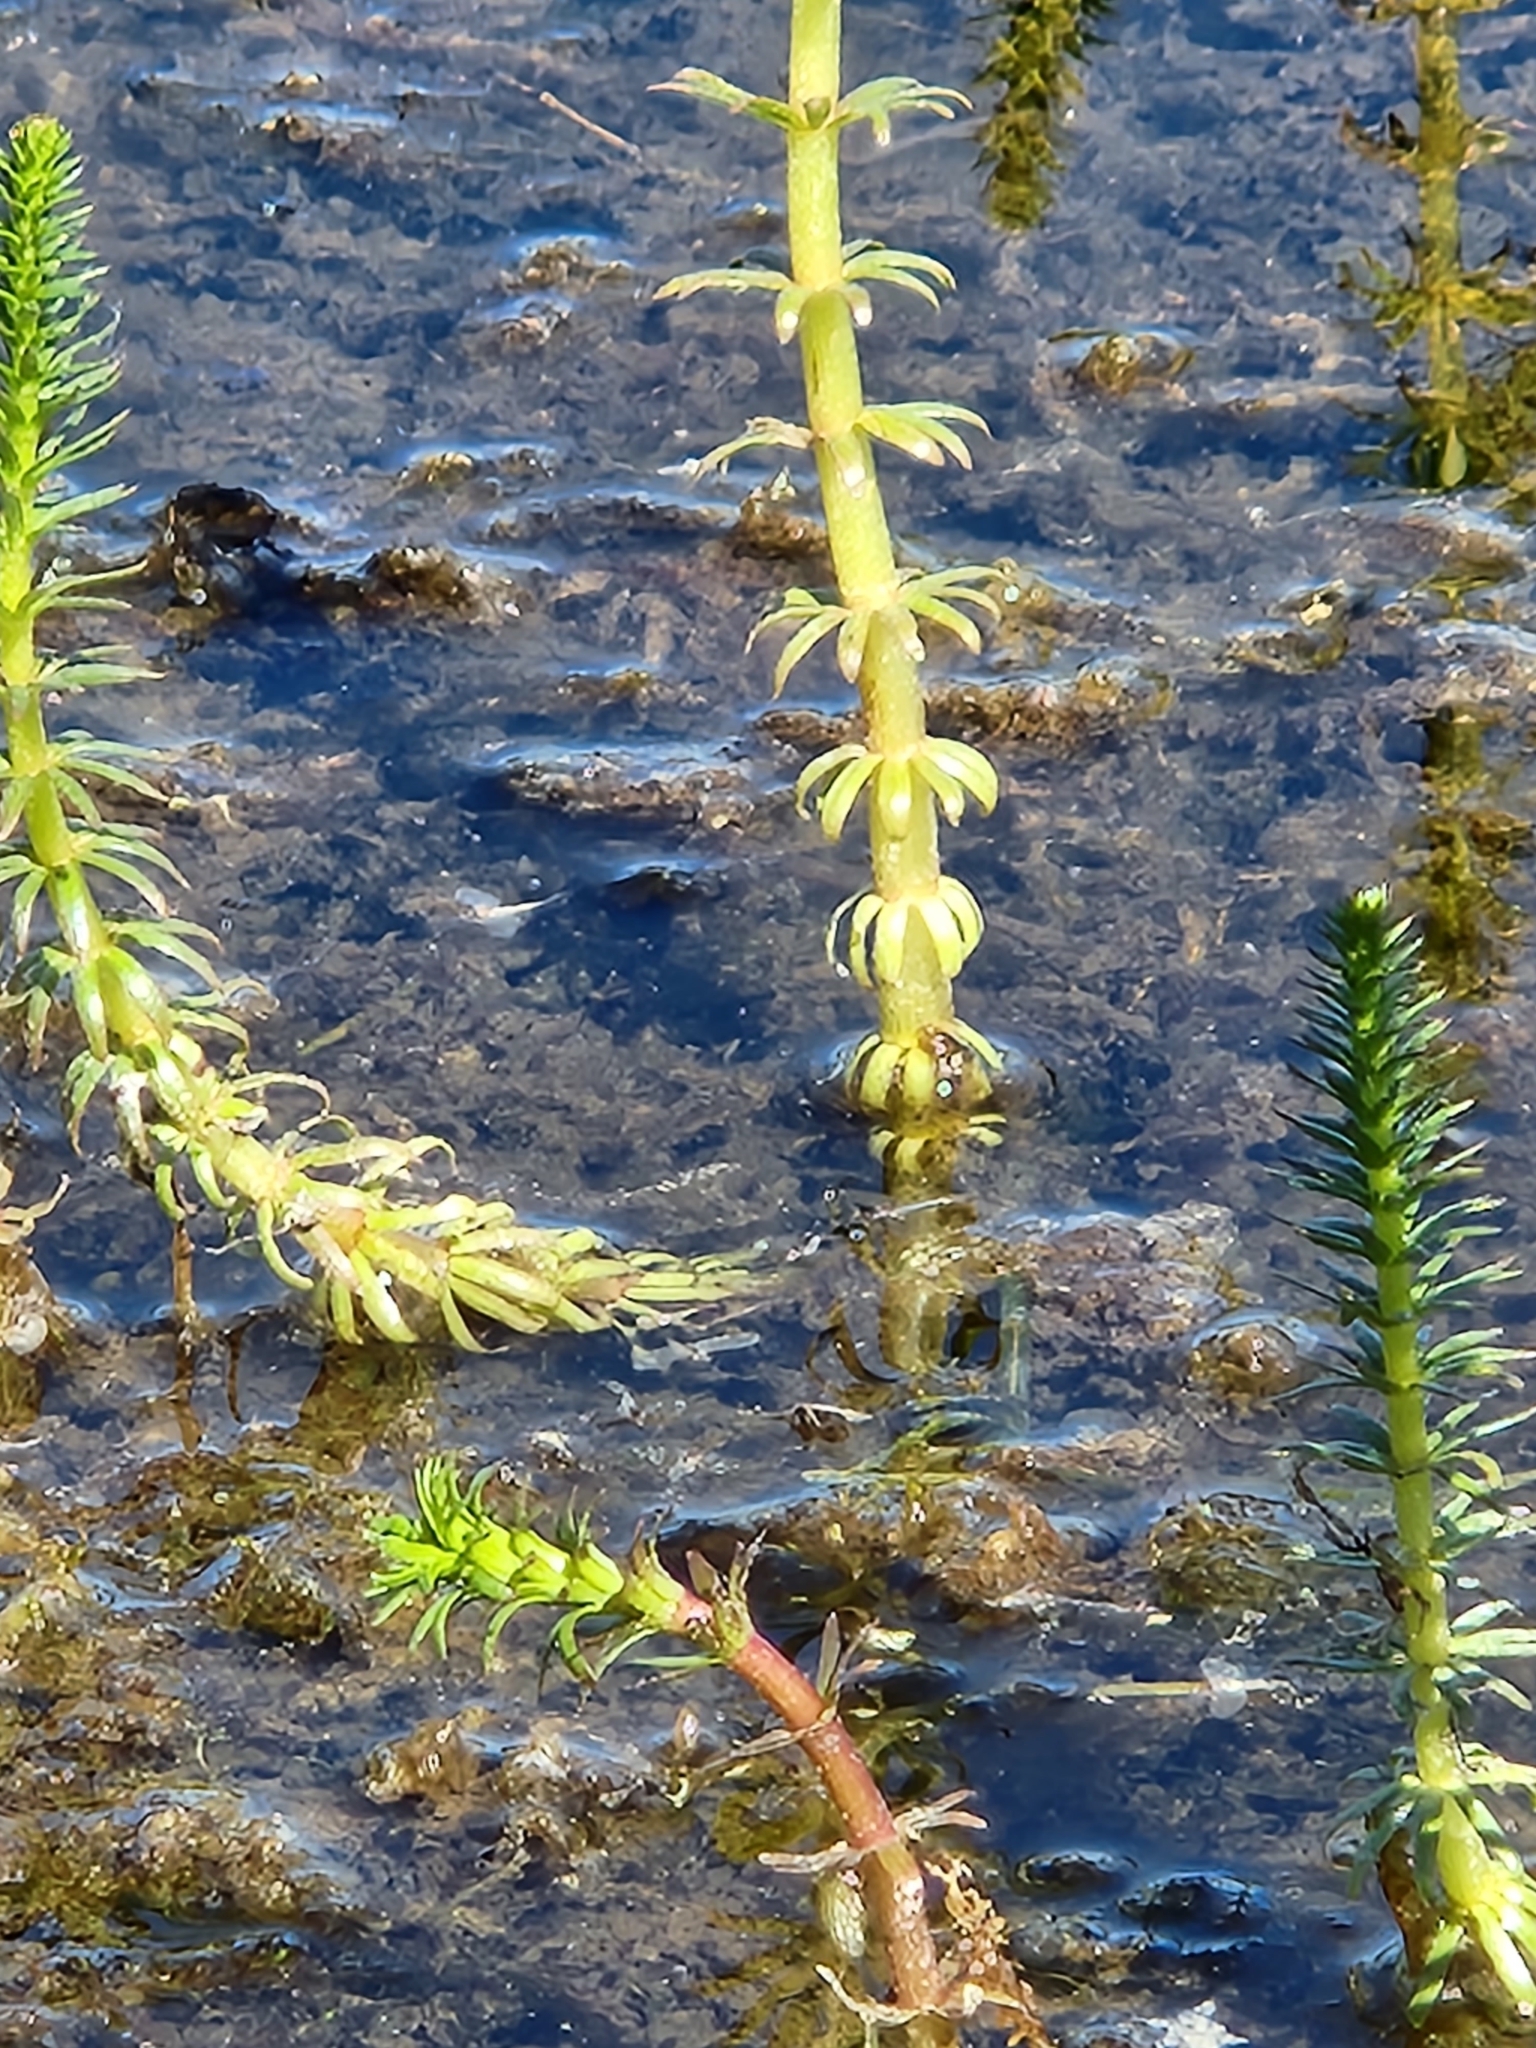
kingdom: Plantae
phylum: Tracheophyta
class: Magnoliopsida
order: Lamiales
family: Plantaginaceae
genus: Hippuris
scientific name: Hippuris vulgaris
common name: Mare's-tail
